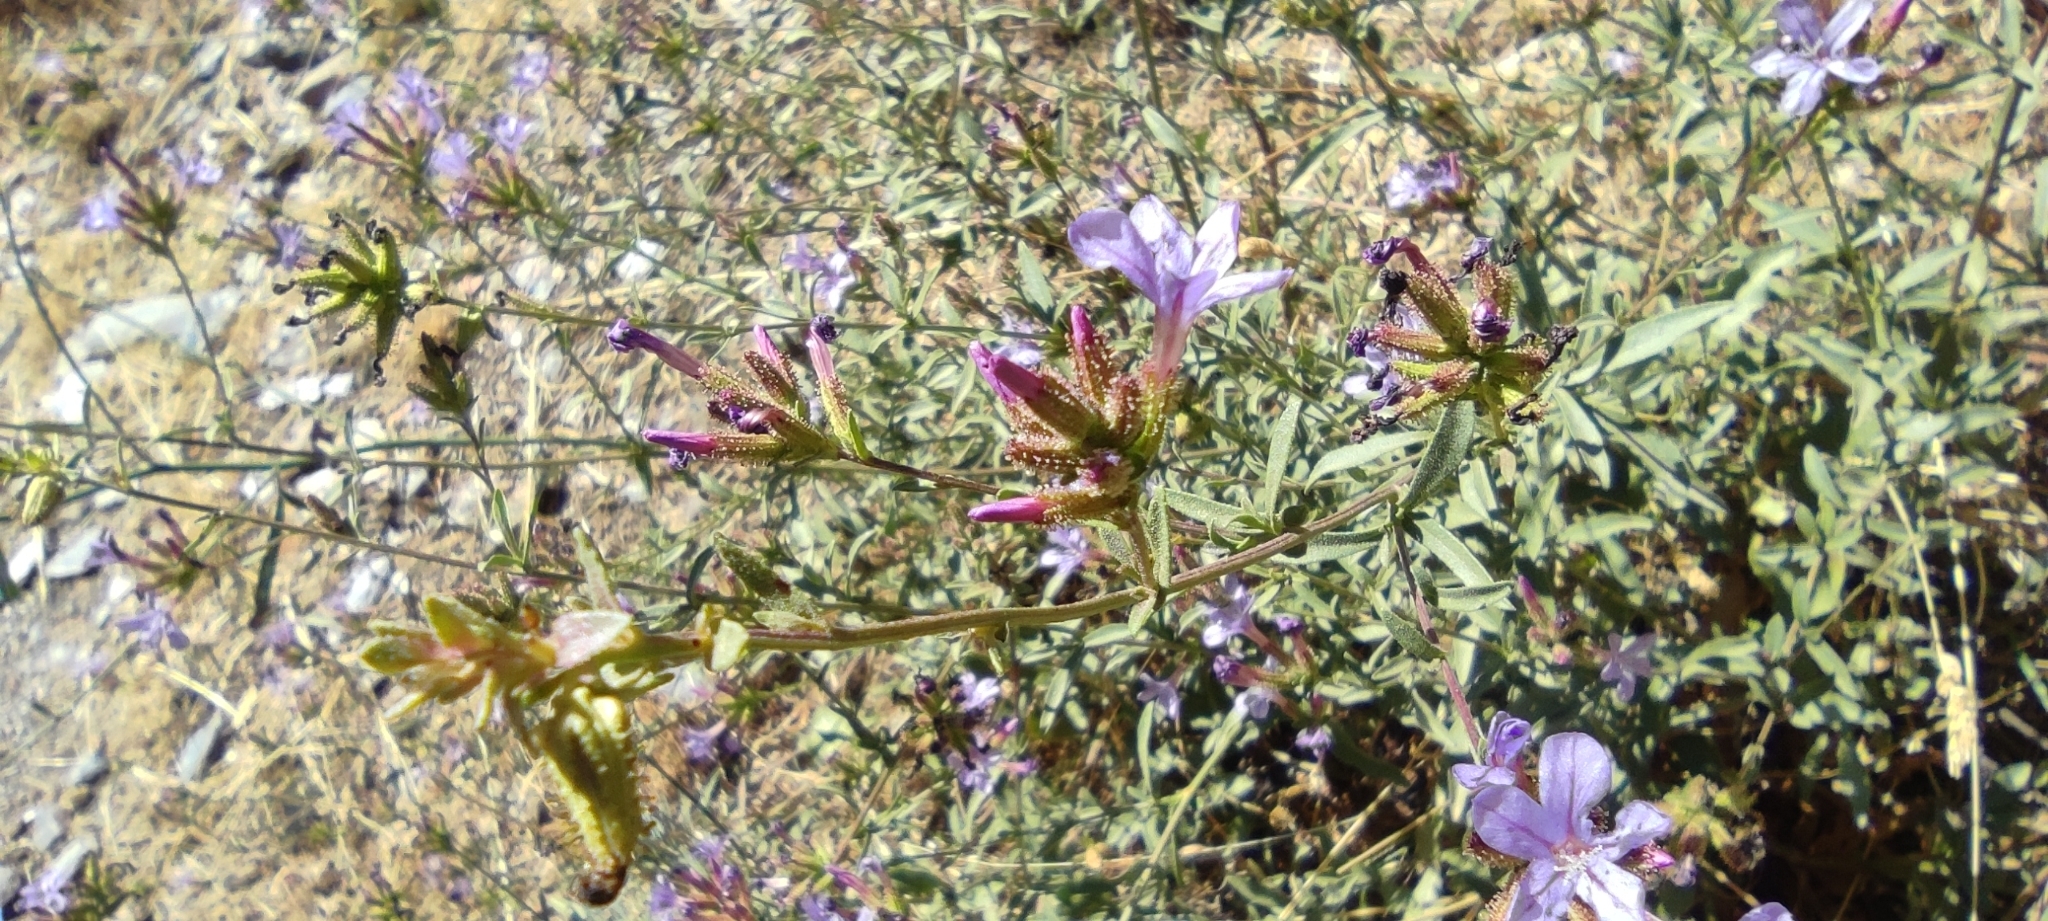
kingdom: Plantae
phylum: Tracheophyta
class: Magnoliopsida
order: Caryophyllales
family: Plumbaginaceae
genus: Plumbago
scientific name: Plumbago europaea
